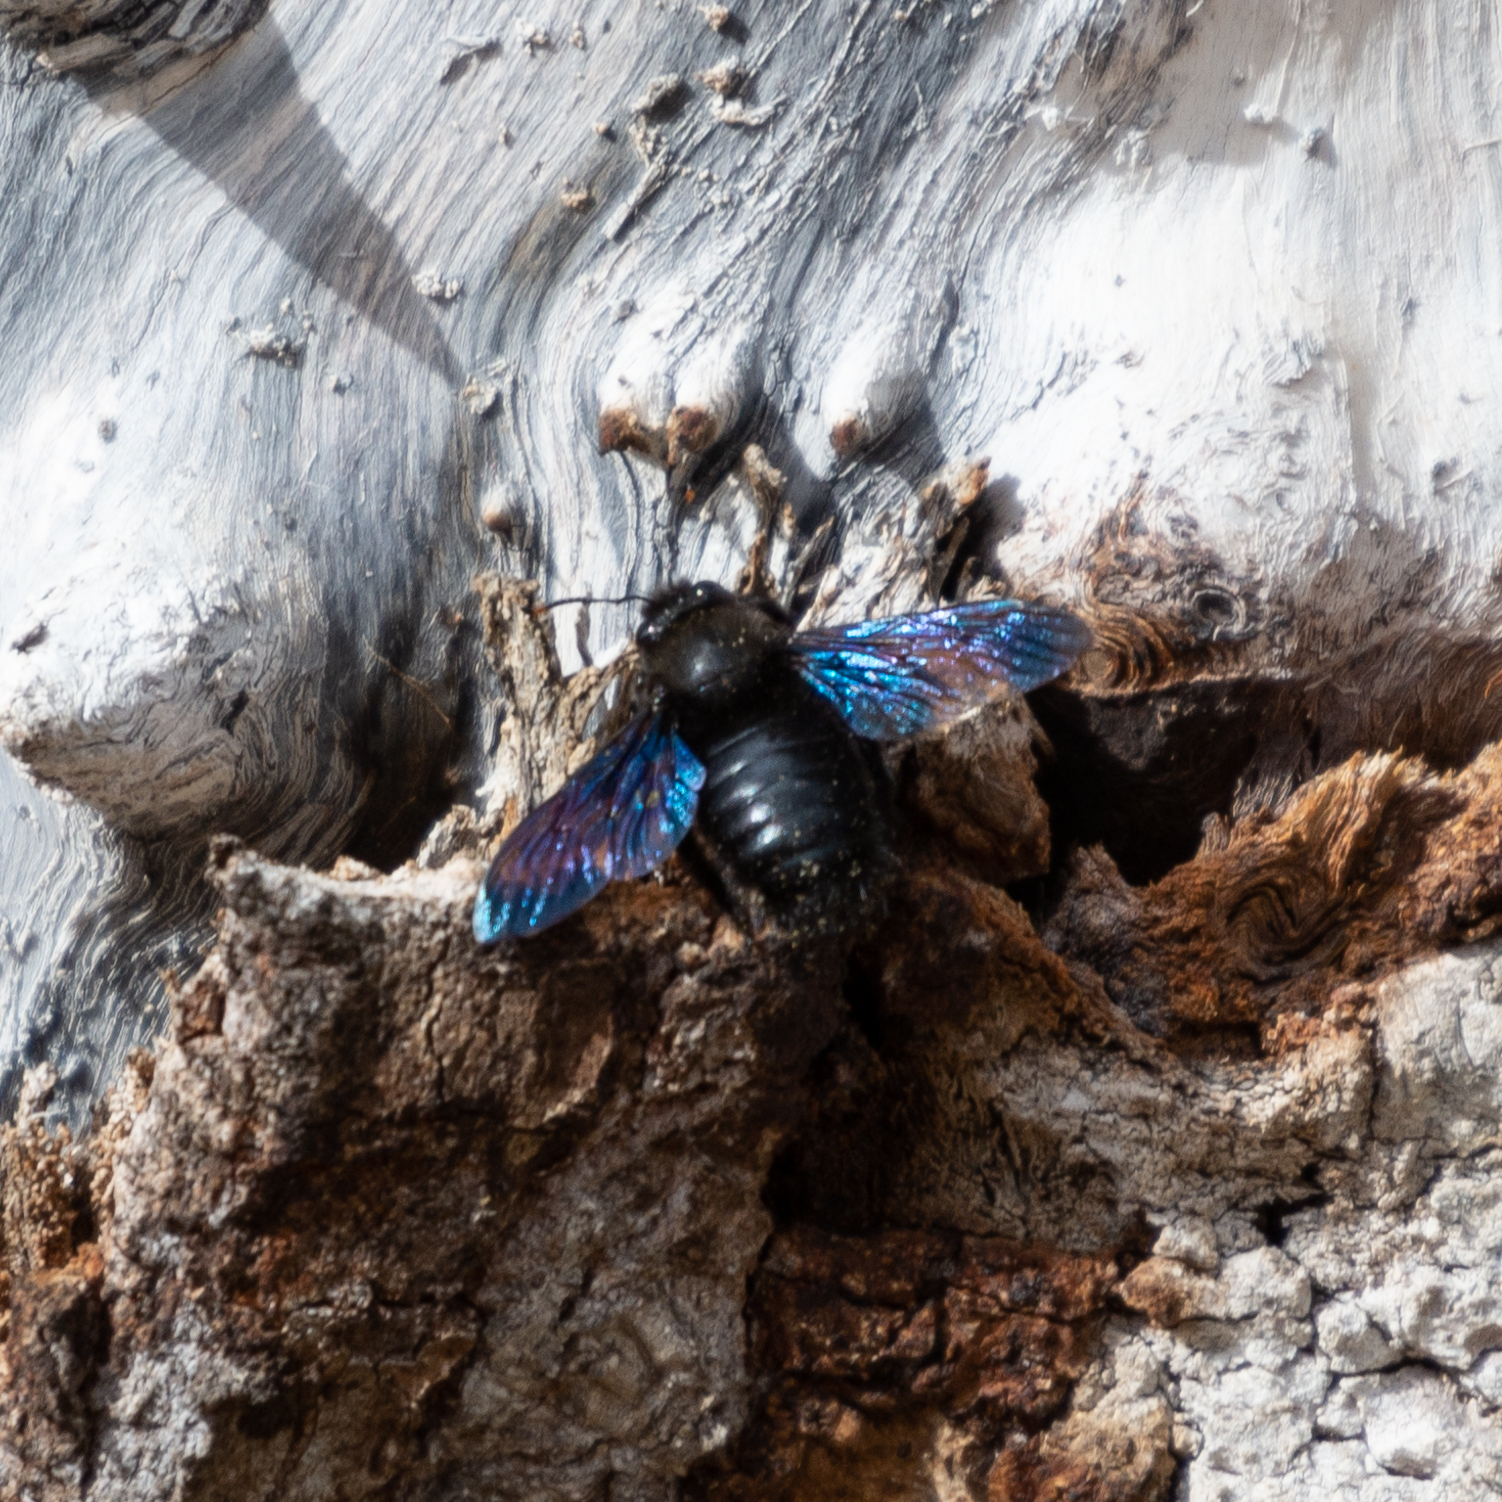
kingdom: Animalia
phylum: Arthropoda
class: Insecta
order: Hymenoptera
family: Apidae
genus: Xylocopa
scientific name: Xylocopa violacea
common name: Violet carpenter bee
